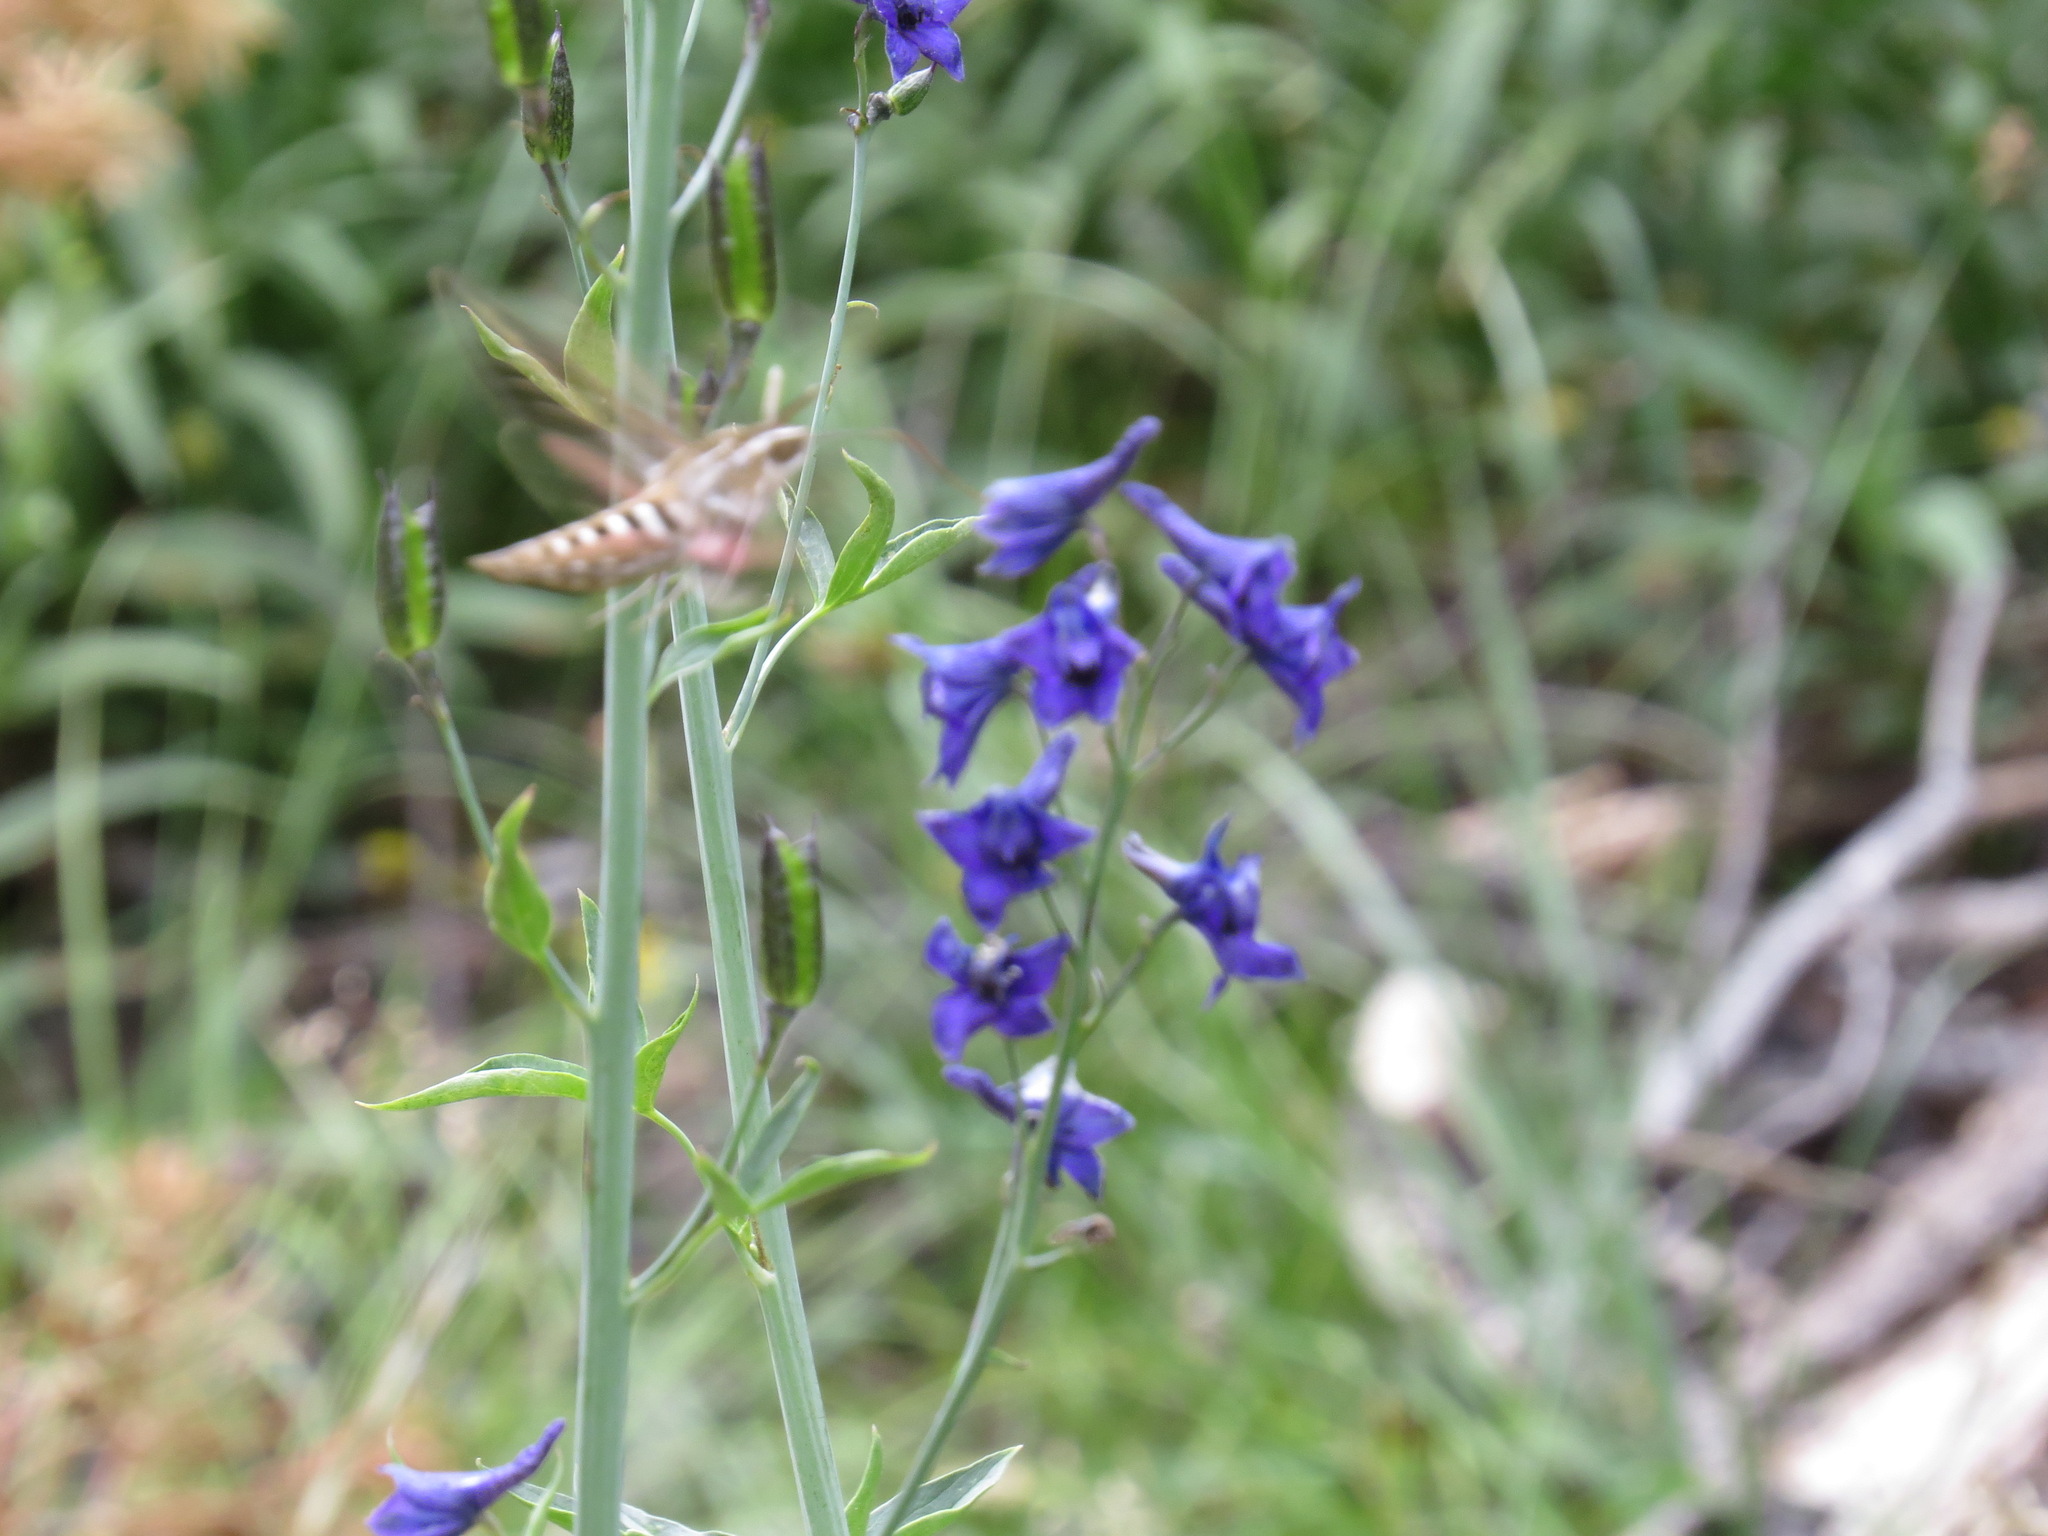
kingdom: Animalia
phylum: Arthropoda
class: Insecta
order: Lepidoptera
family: Sphingidae
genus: Hyles
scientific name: Hyles lineata
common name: White-lined sphinx
